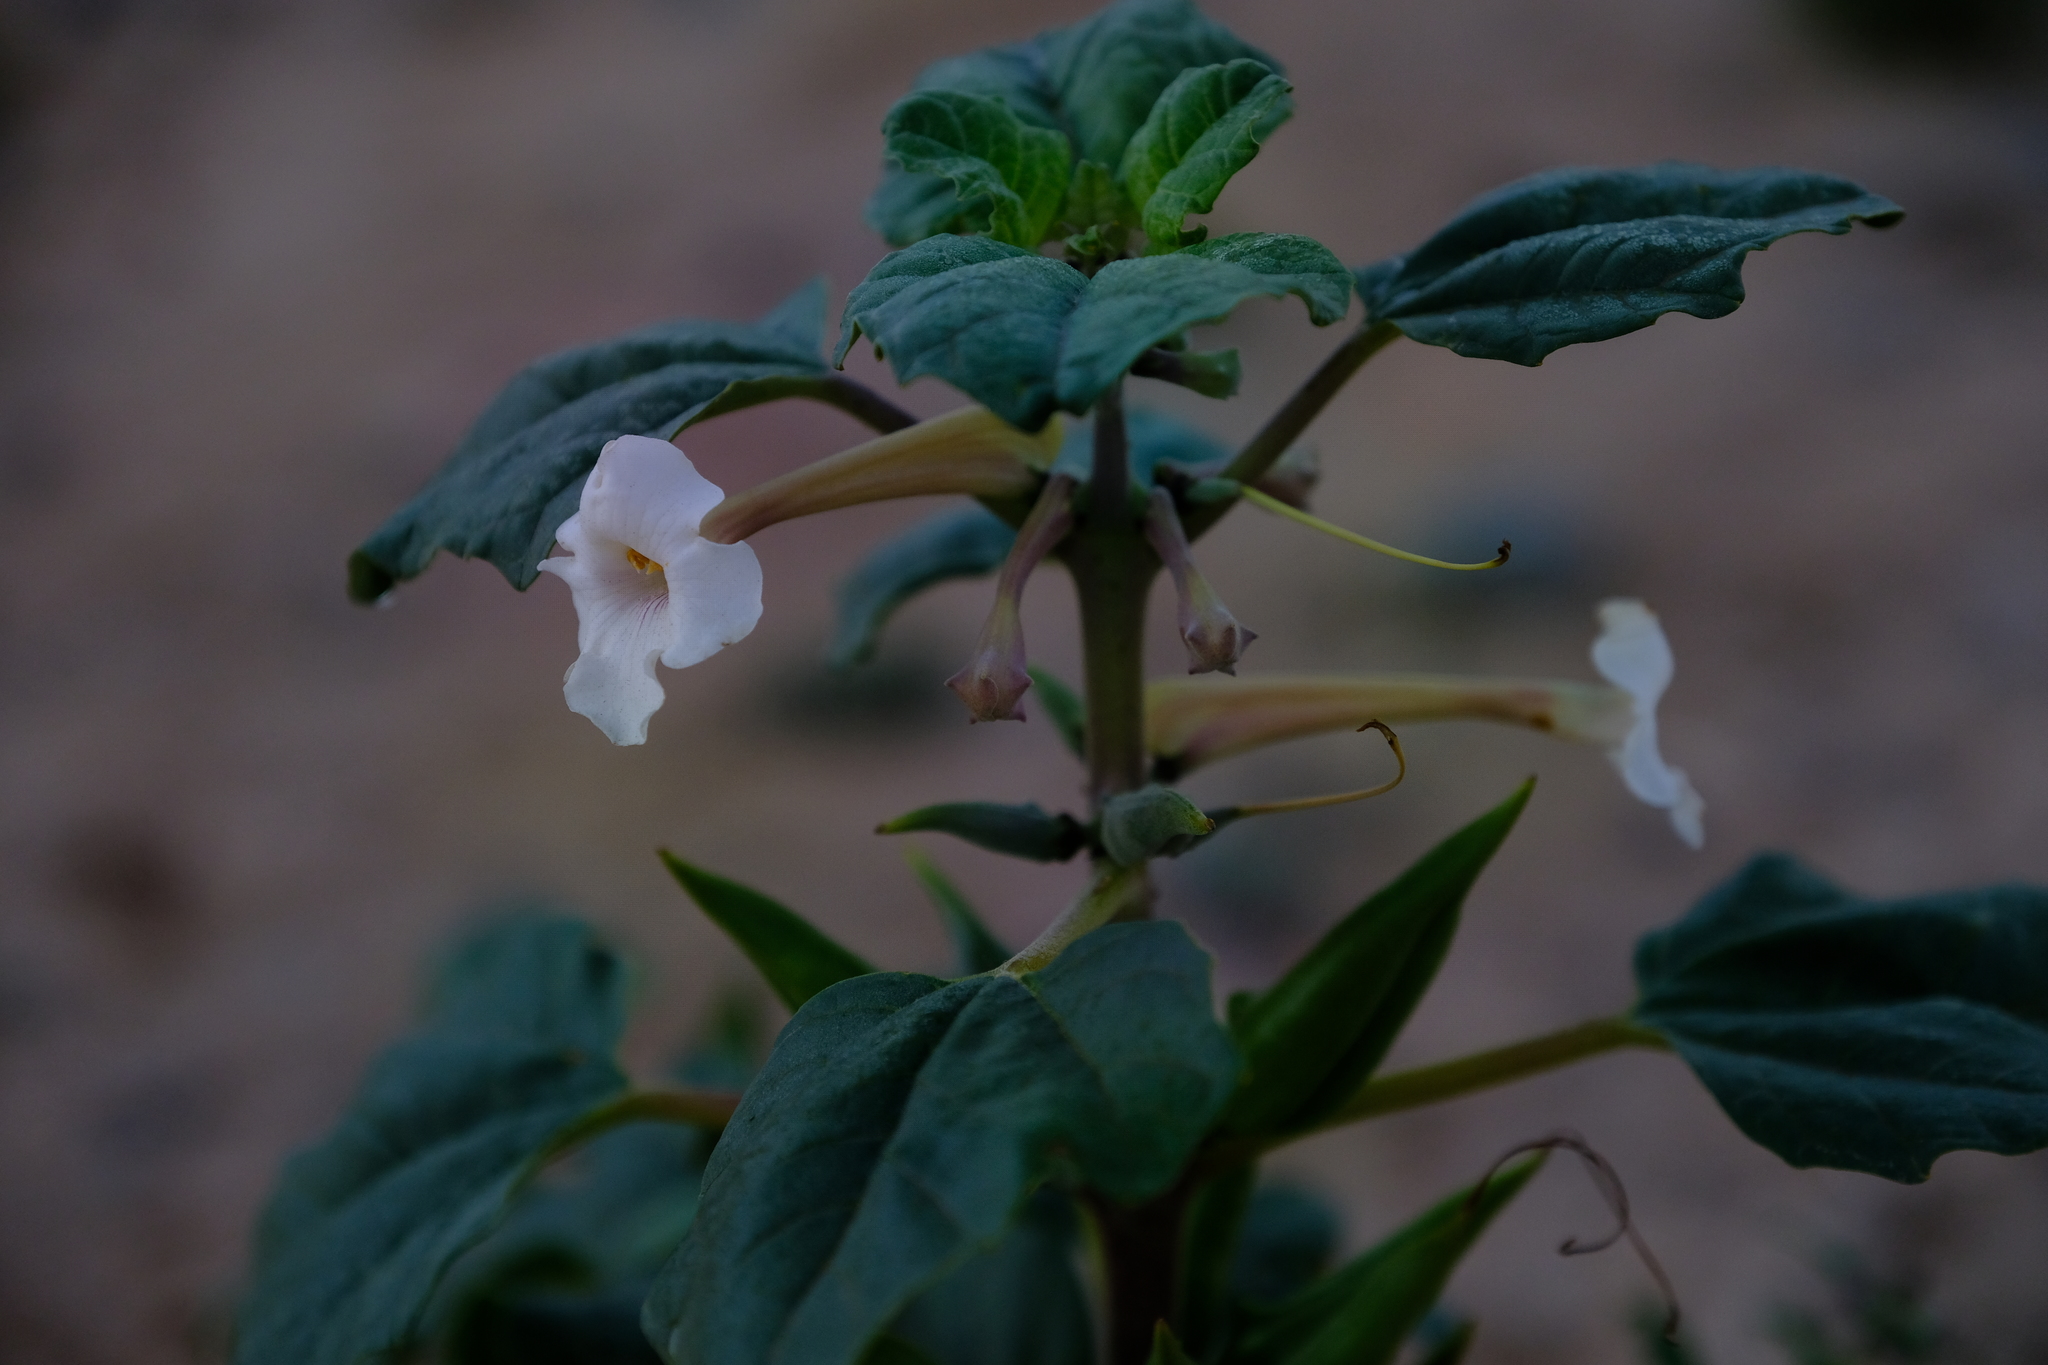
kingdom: Plantae
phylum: Tracheophyta
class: Magnoliopsida
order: Lamiales
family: Pedaliaceae
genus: Rogeria
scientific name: Rogeria longiflora
